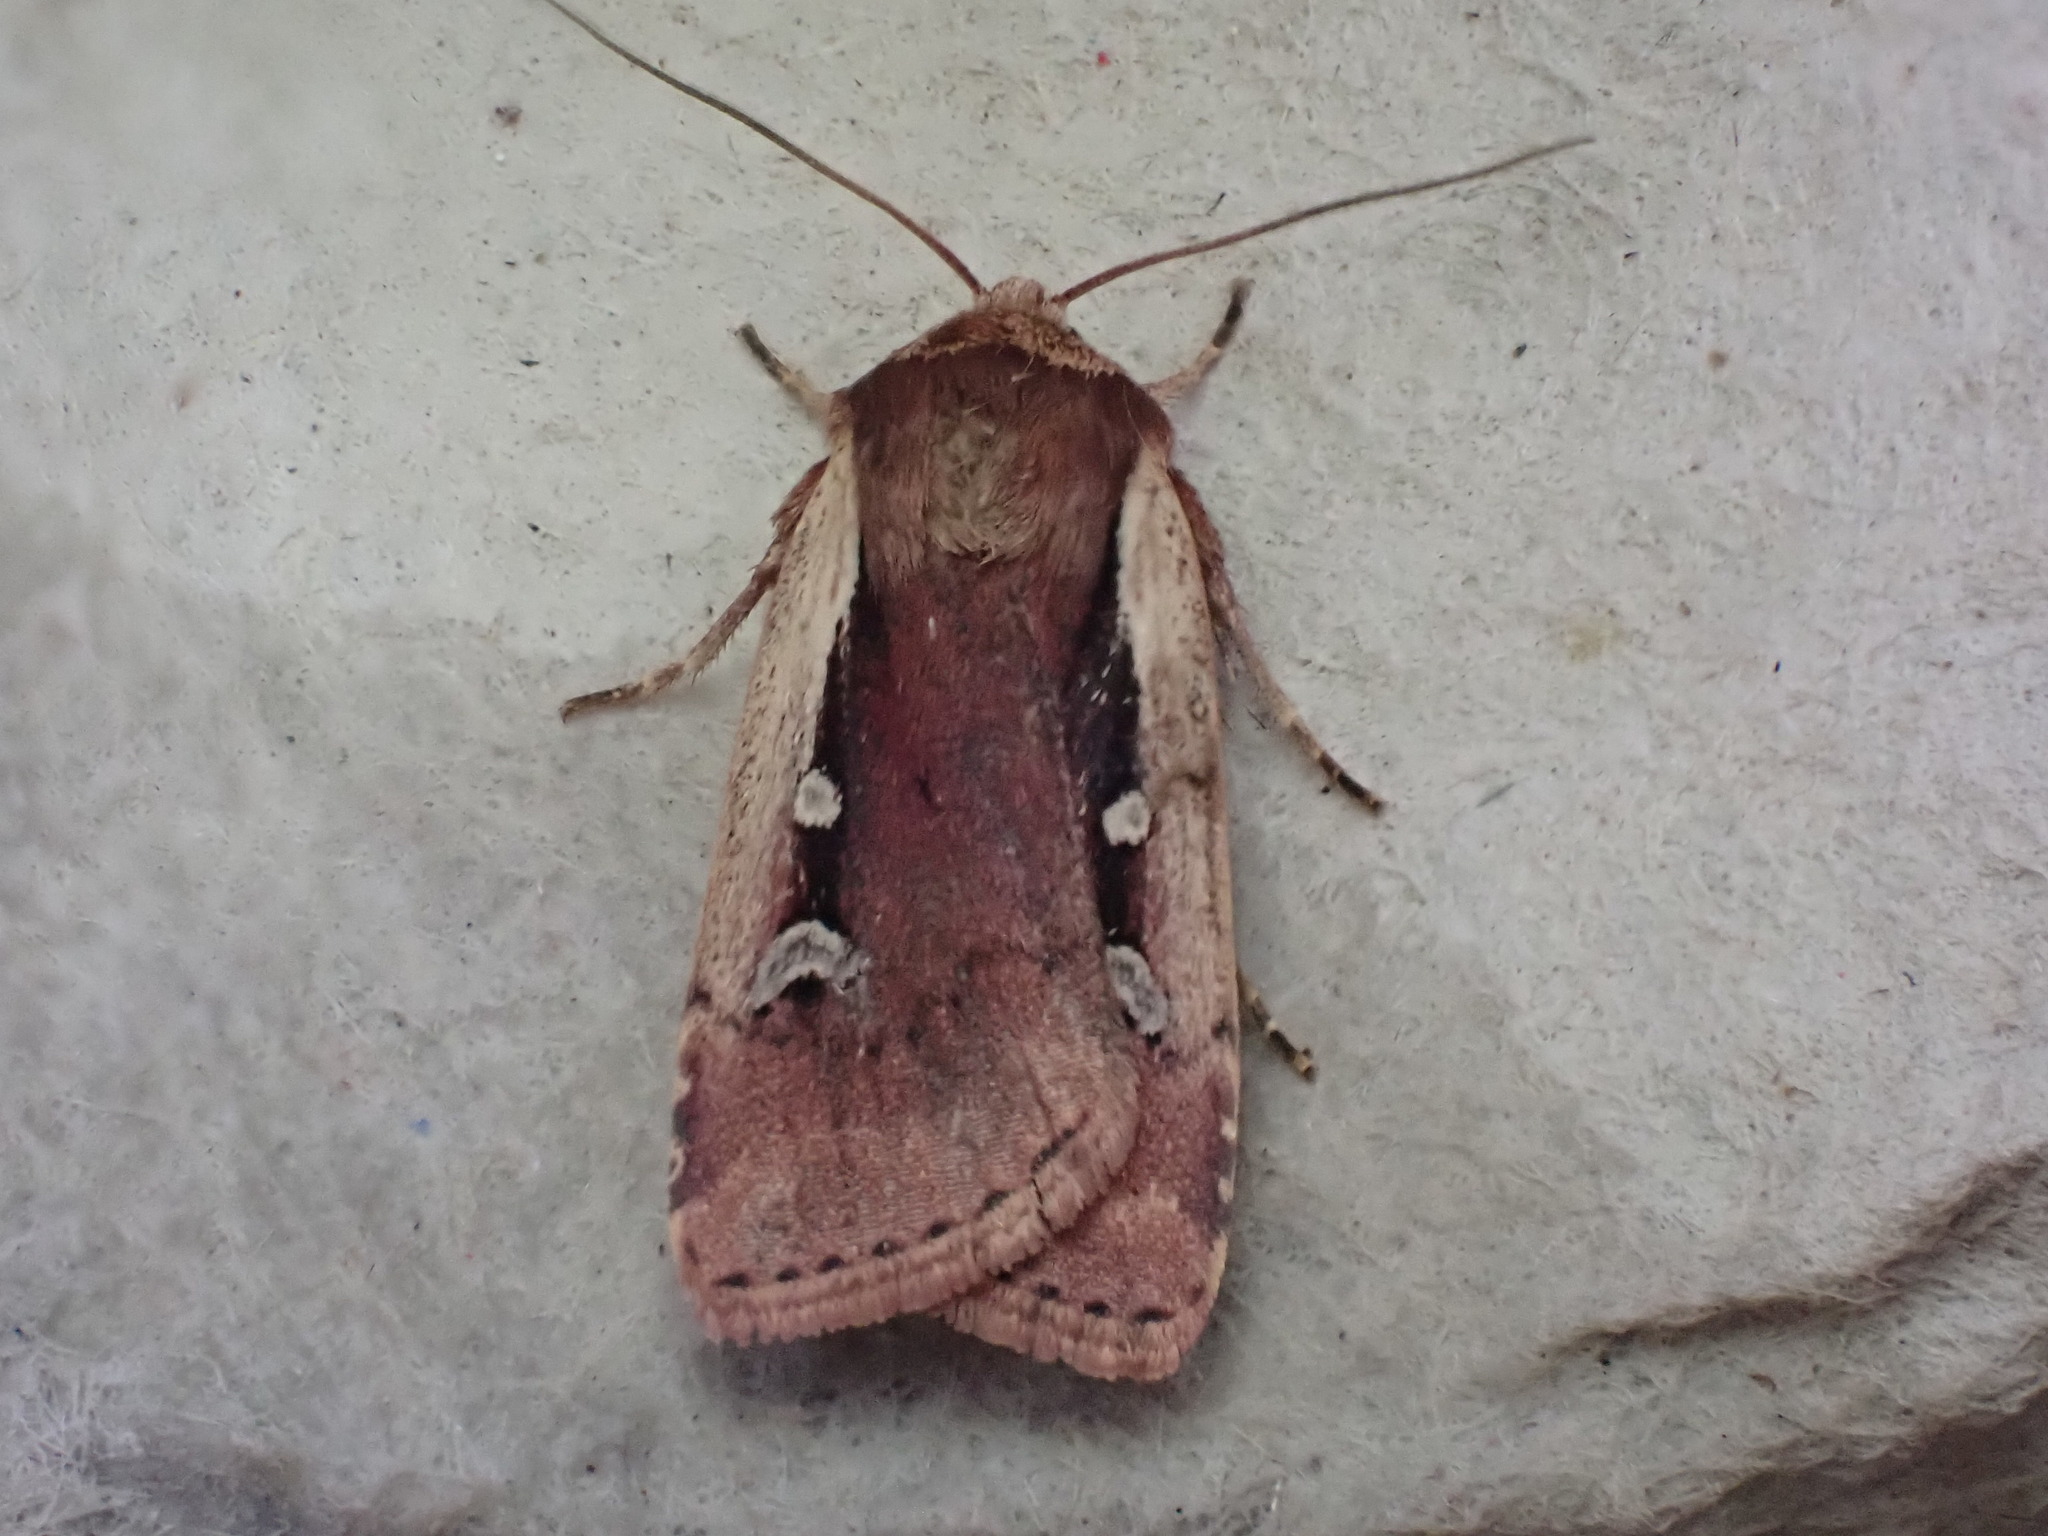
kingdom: Animalia
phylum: Arthropoda
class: Insecta
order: Lepidoptera
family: Noctuidae
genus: Ochropleura
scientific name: Ochropleura plecta
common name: Flame shoulder
